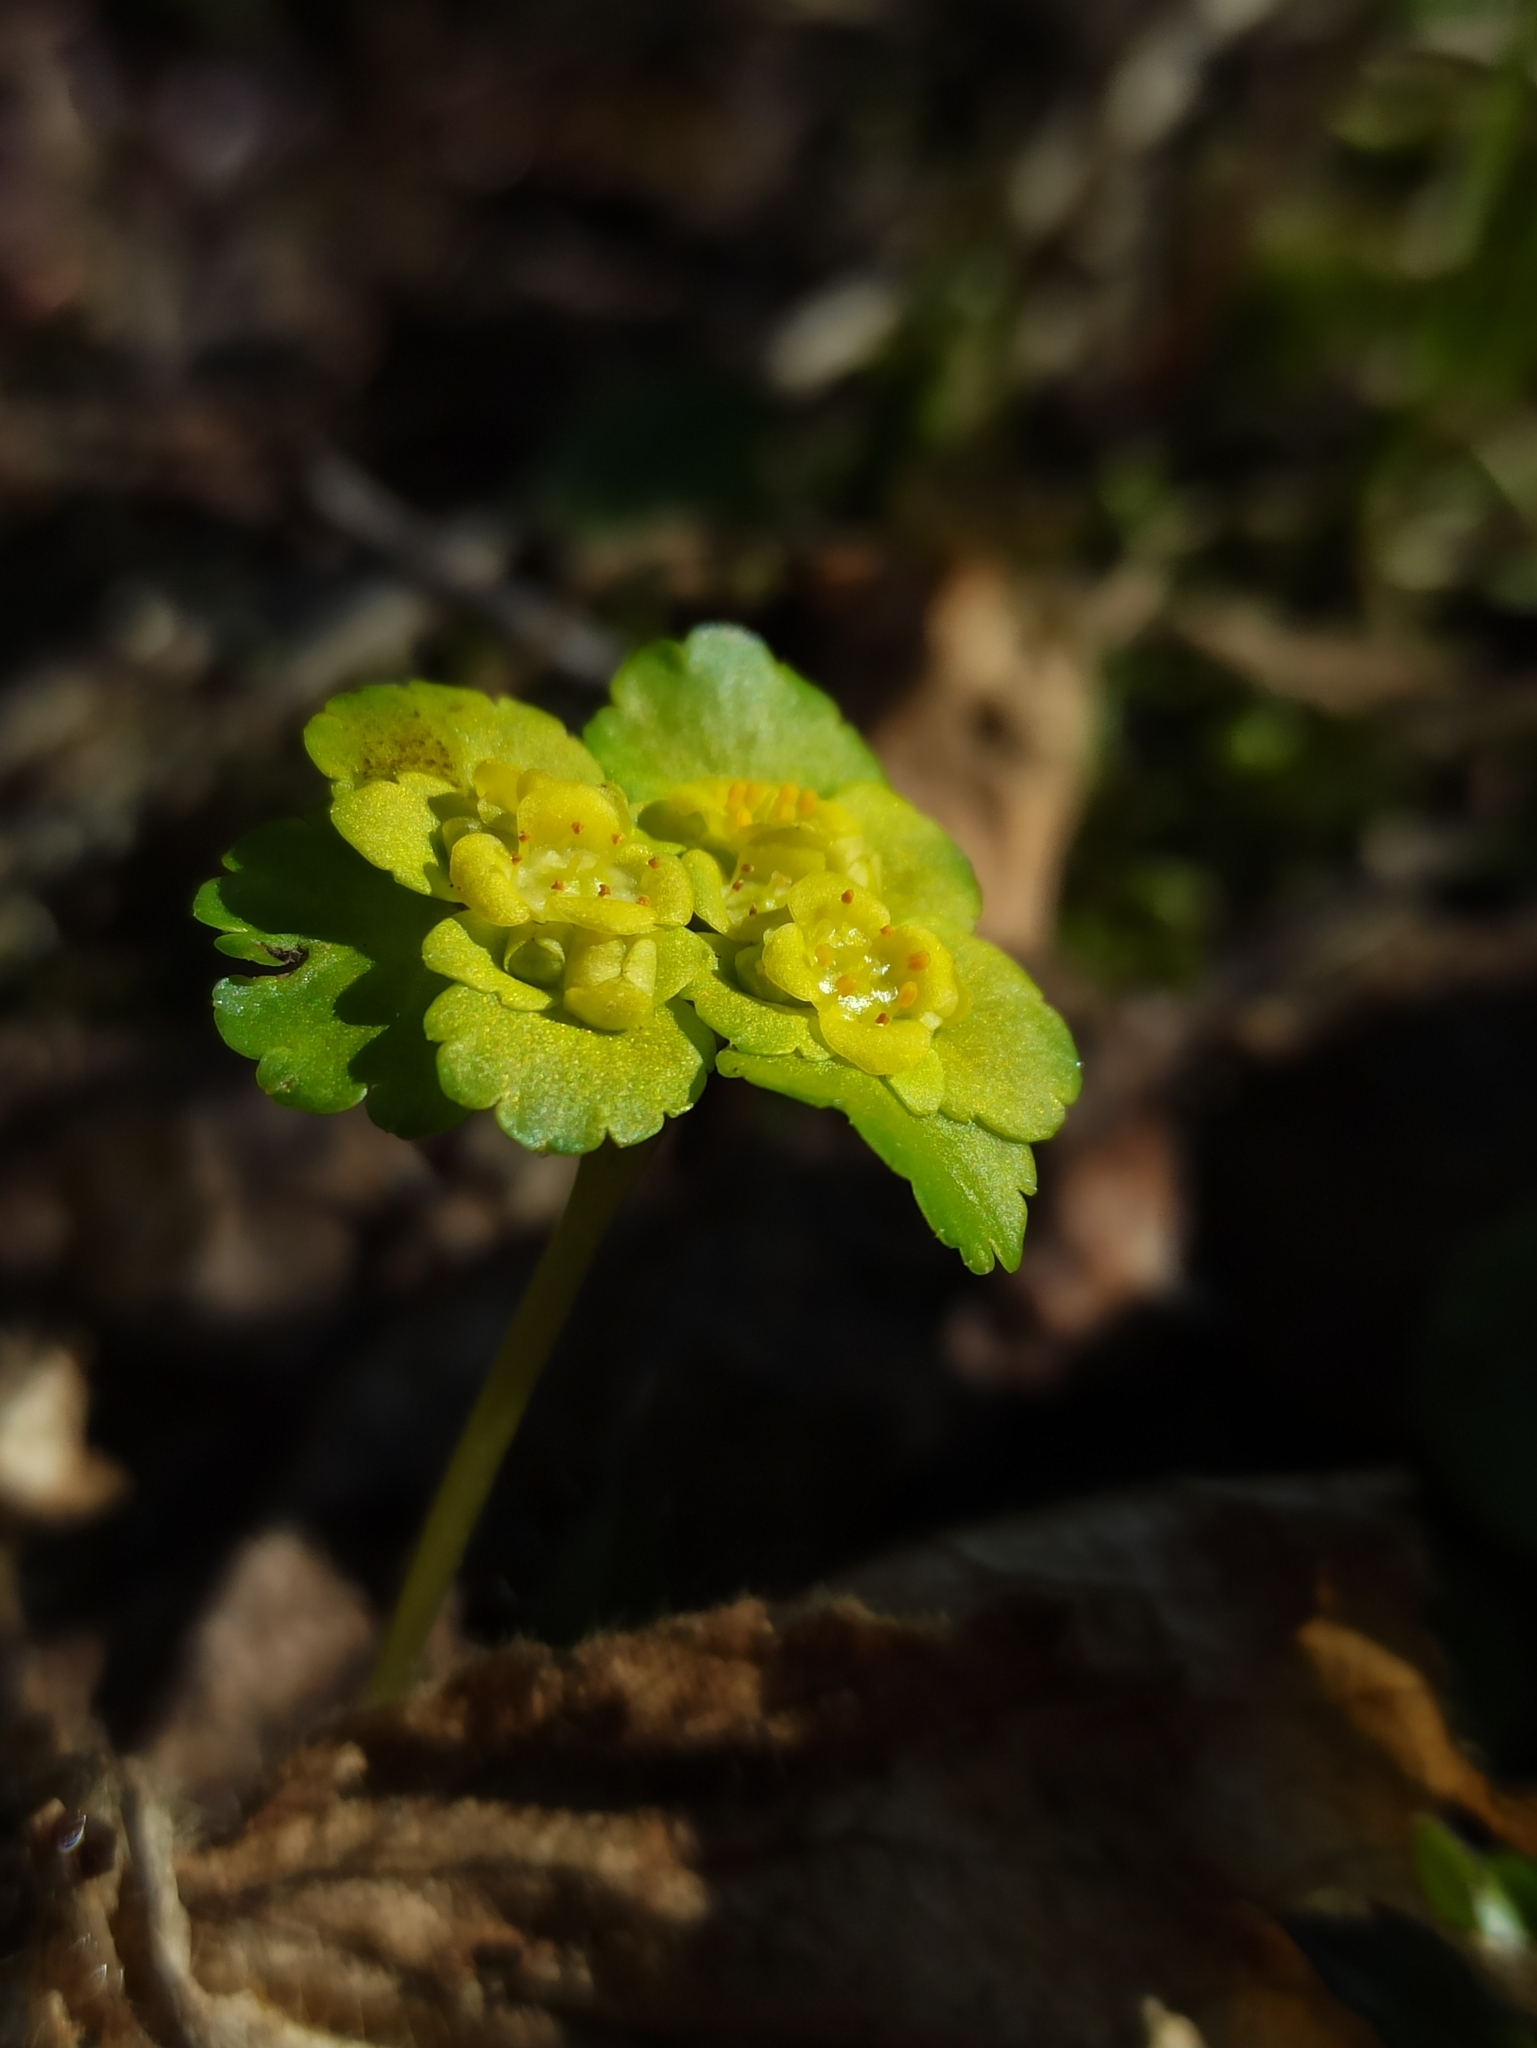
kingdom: Plantae
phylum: Tracheophyta
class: Magnoliopsida
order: Saxifragales
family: Saxifragaceae
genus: Chrysosplenium
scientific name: Chrysosplenium alternifolium
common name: Alternate-leaved golden-saxifrage
